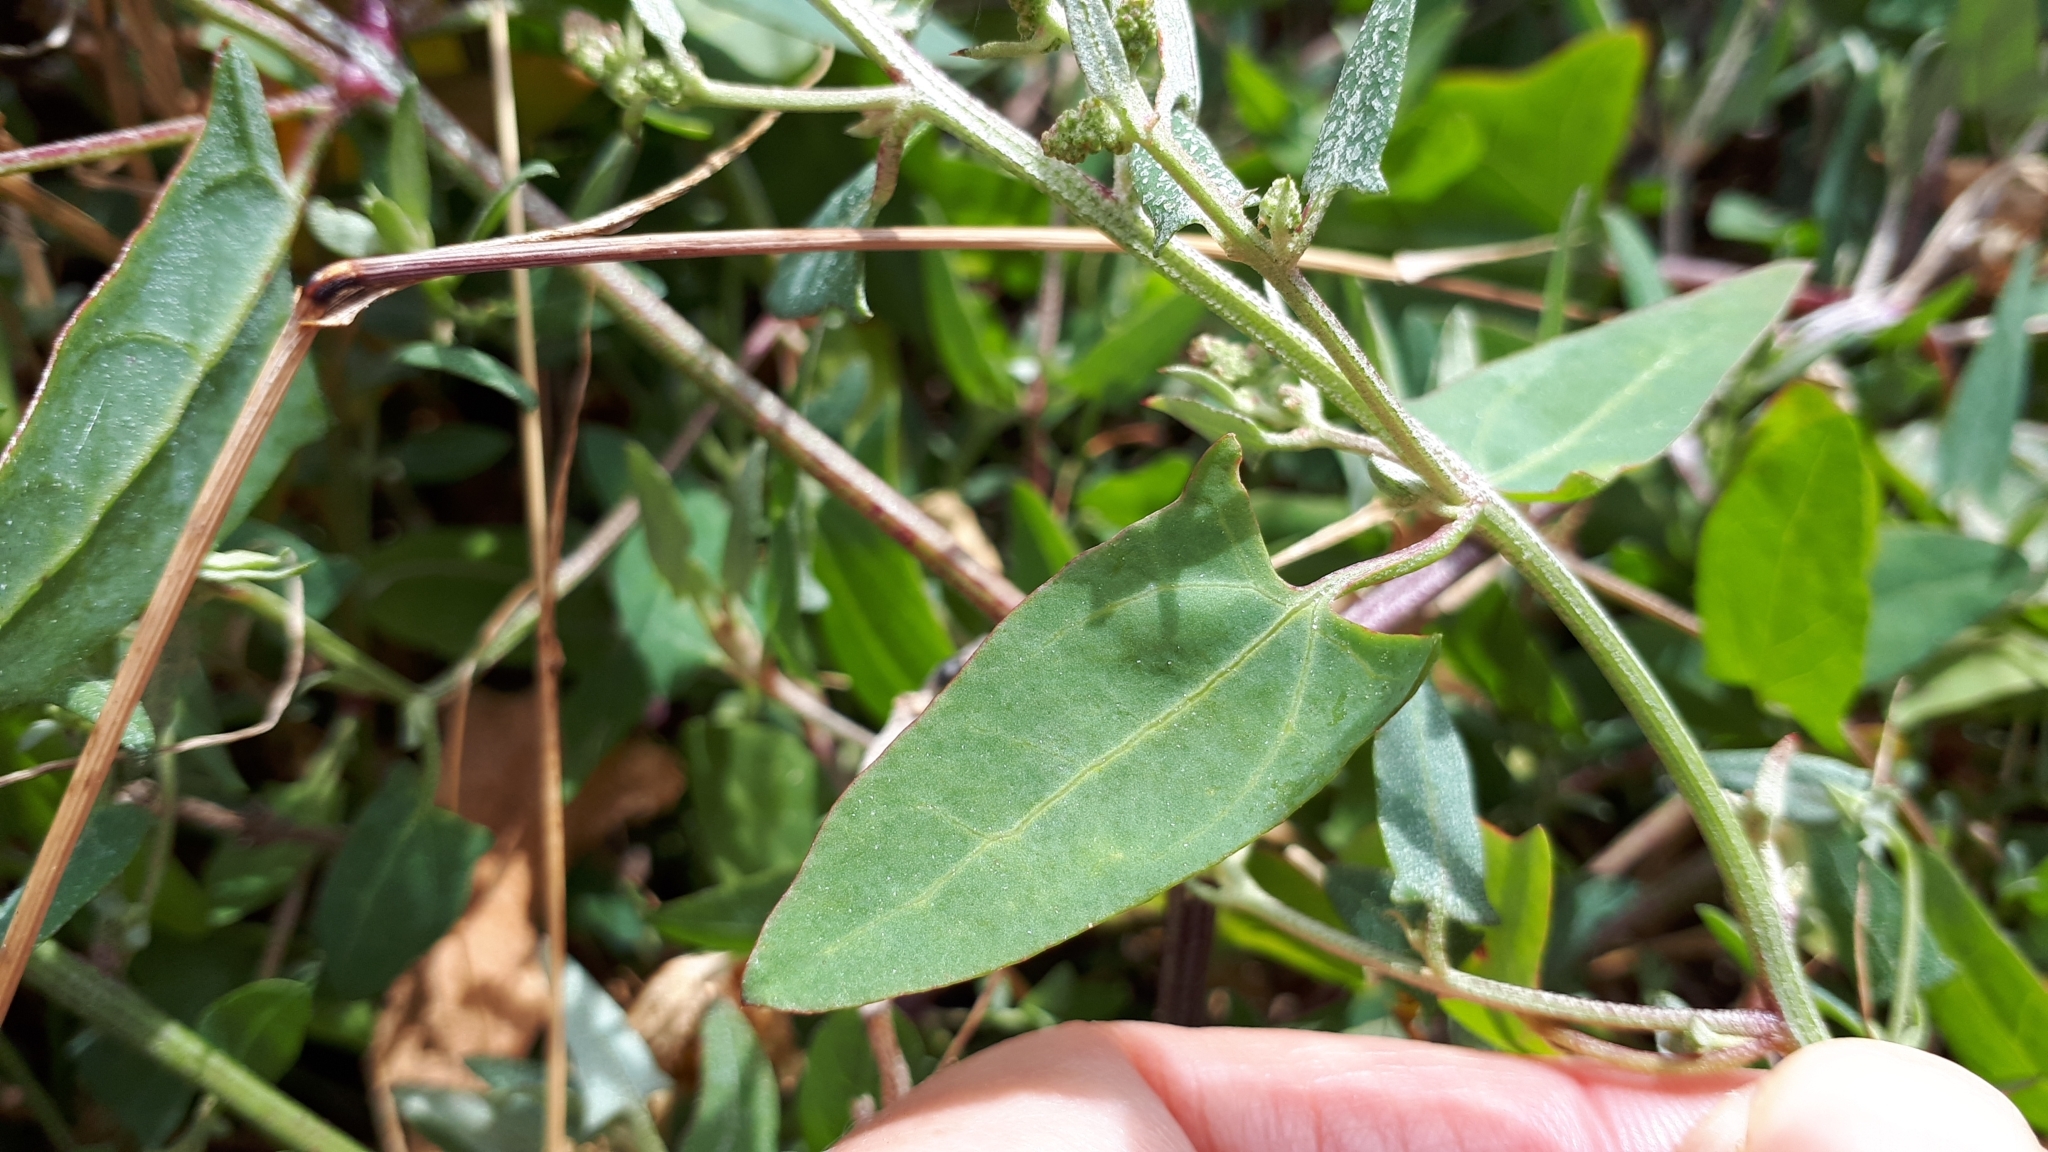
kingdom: Plantae
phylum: Tracheophyta
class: Magnoliopsida
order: Caryophyllales
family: Amaranthaceae
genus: Atriplex
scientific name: Atriplex prostrata
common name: Spear-leaved orache
